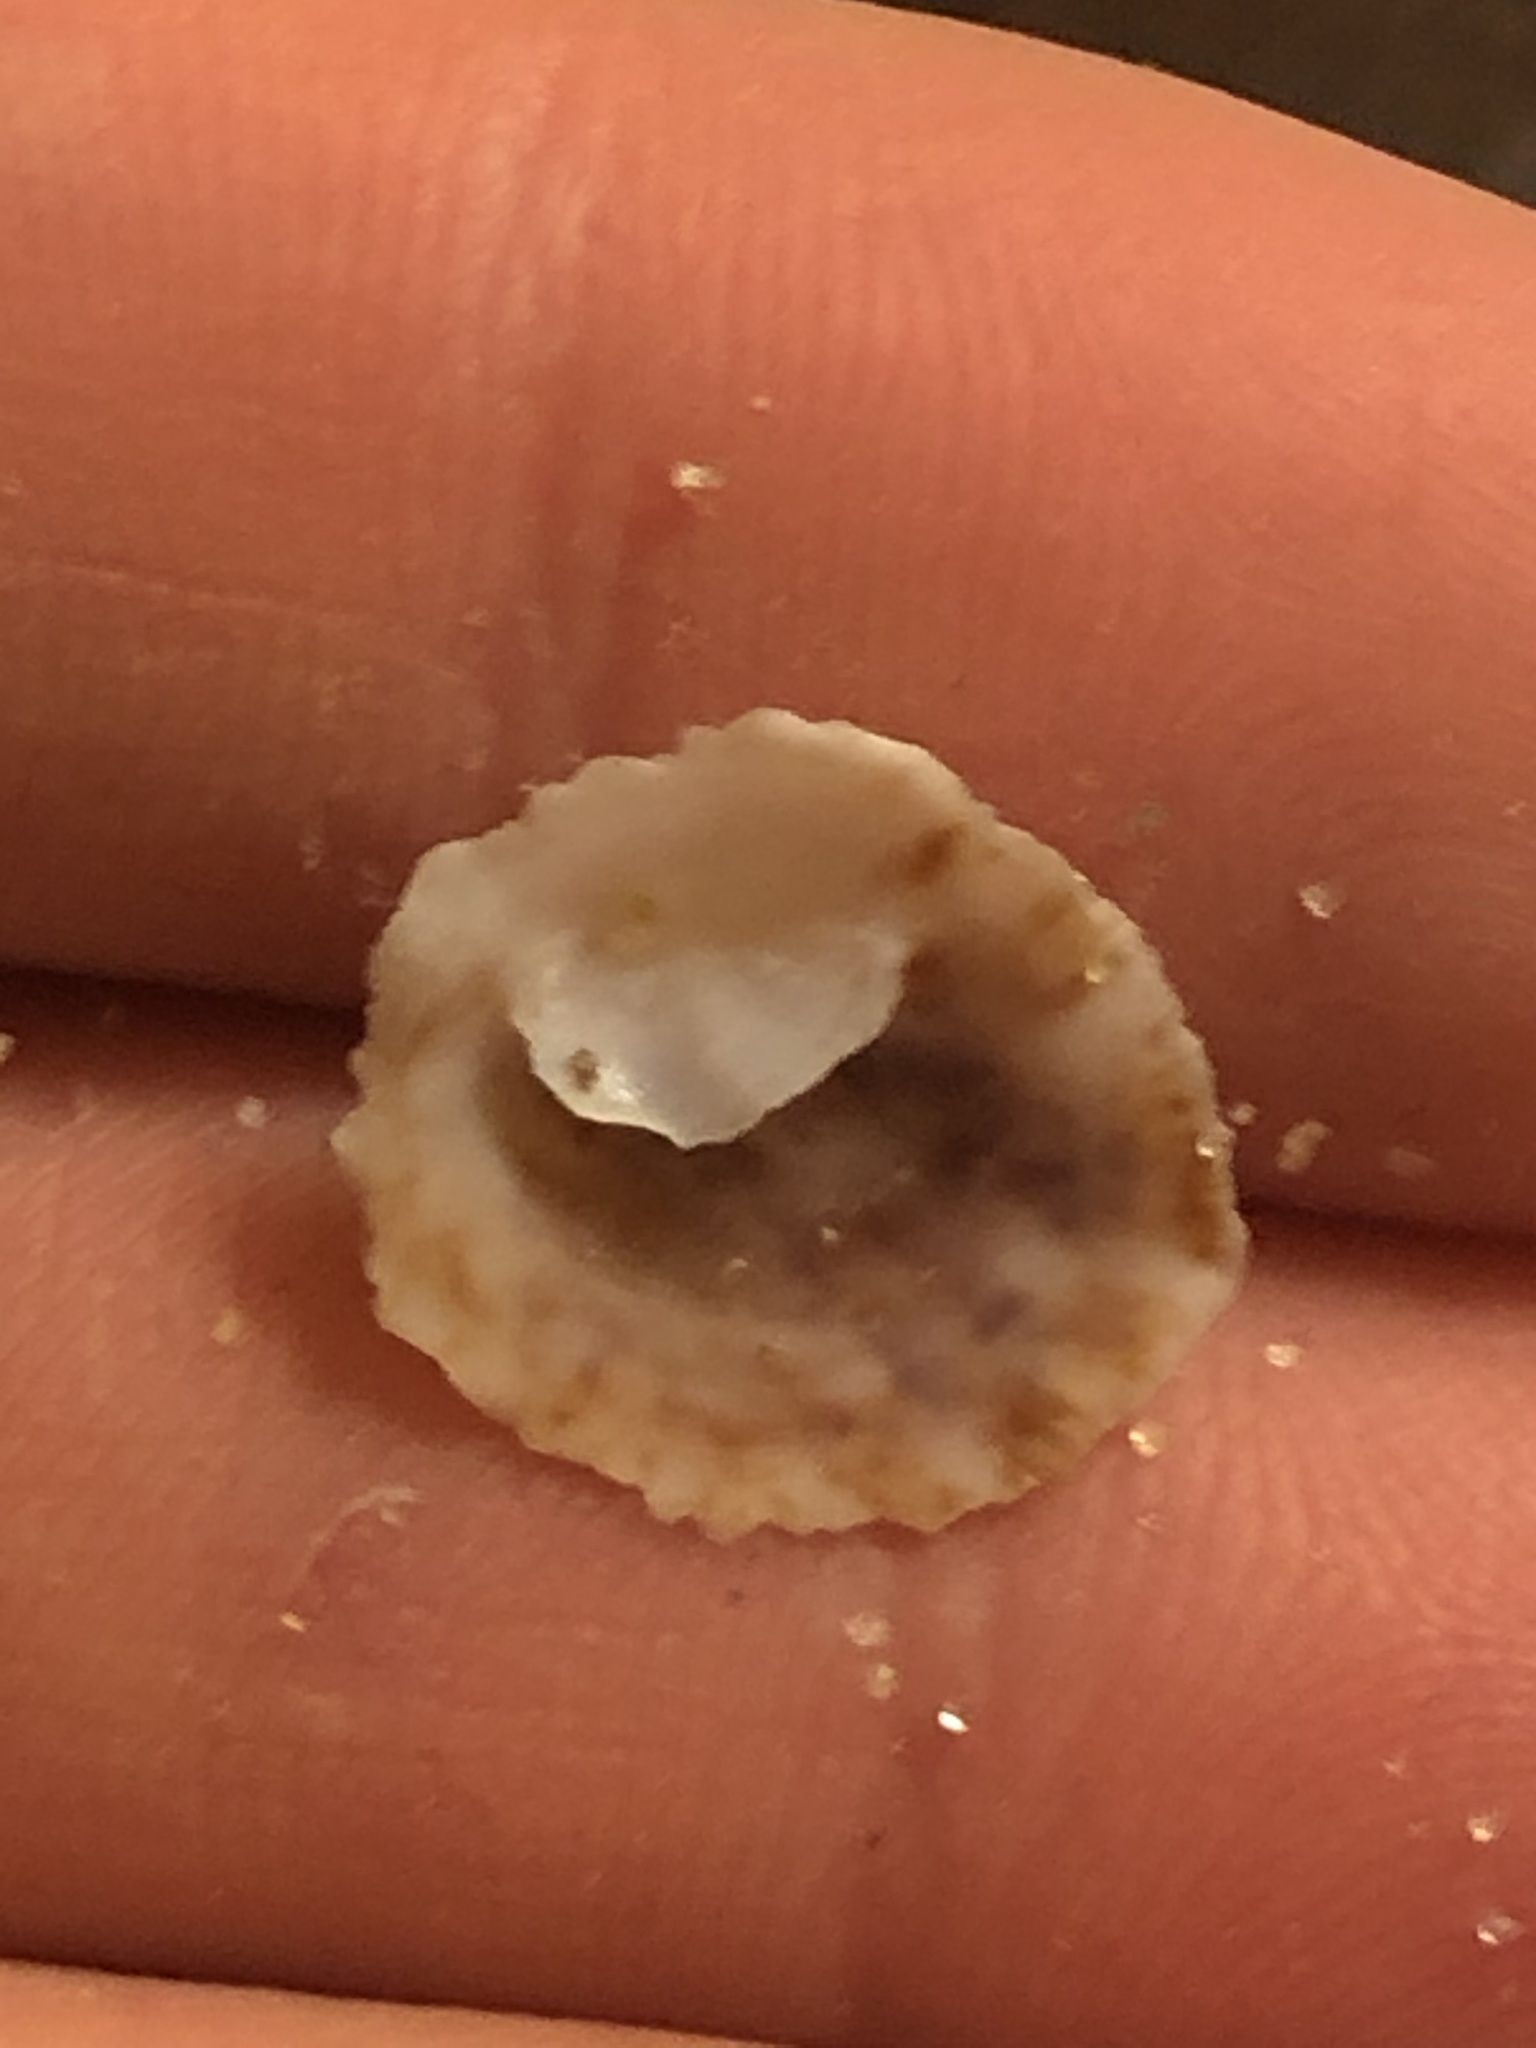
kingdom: Animalia
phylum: Mollusca
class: Gastropoda
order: Littorinimorpha
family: Calyptraeidae
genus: Crepipatella
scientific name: Crepipatella lingulata
